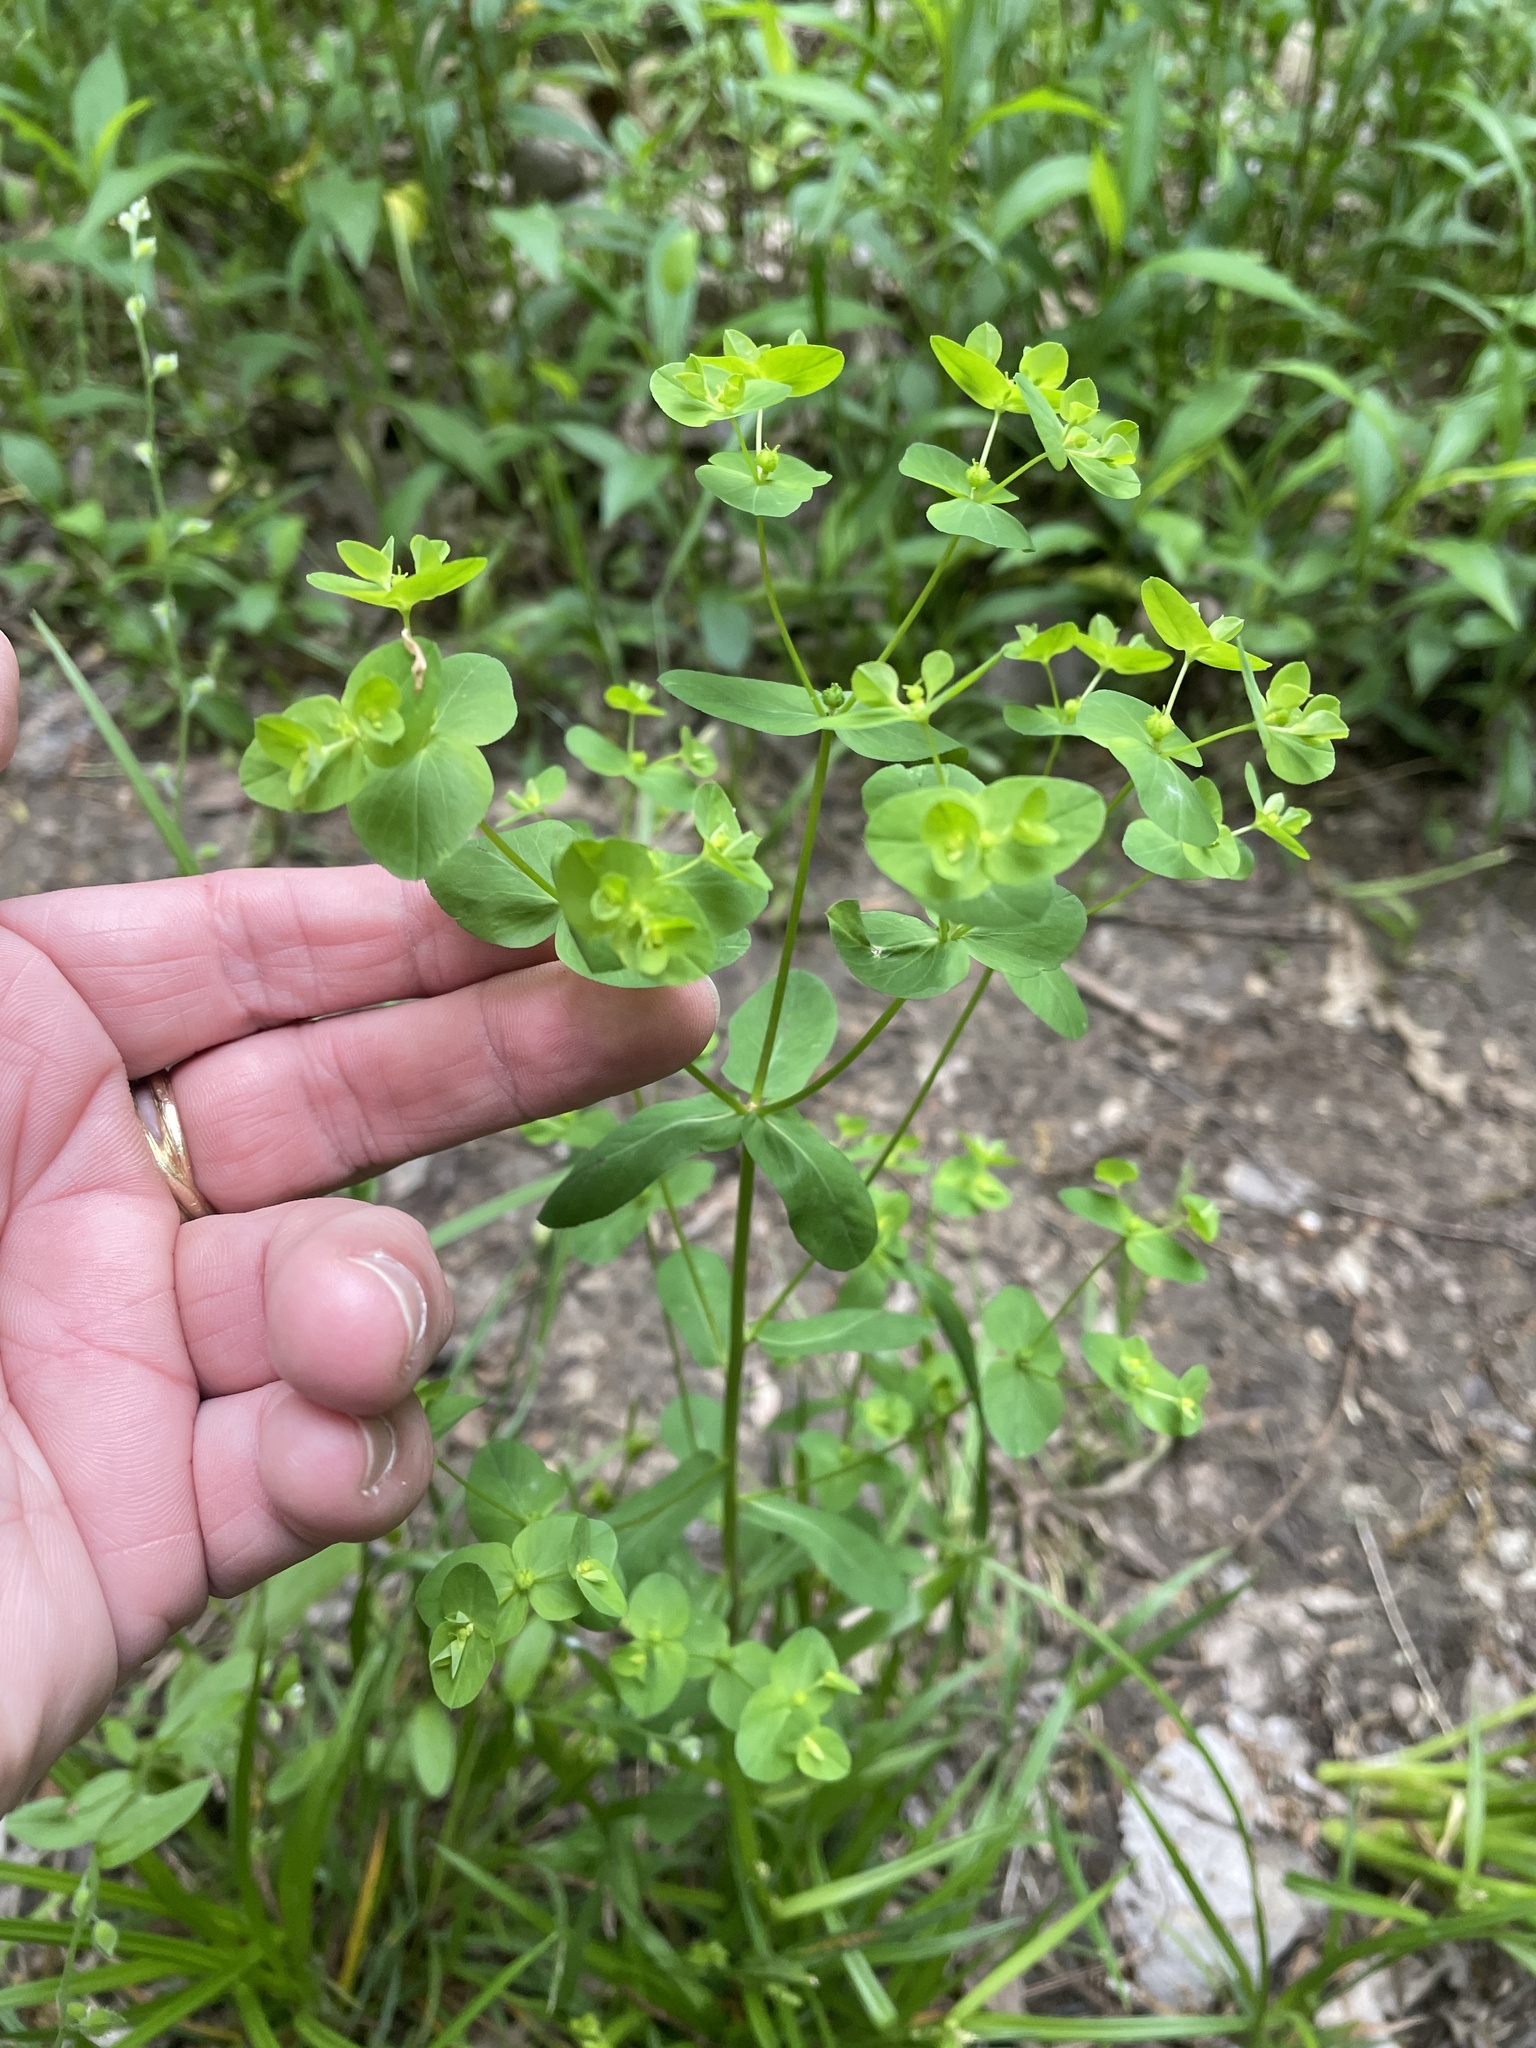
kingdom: Plantae
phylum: Tracheophyta
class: Magnoliopsida
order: Malpighiales
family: Euphorbiaceae
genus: Euphorbia
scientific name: Euphorbia spathulata
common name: Blunt spurge
